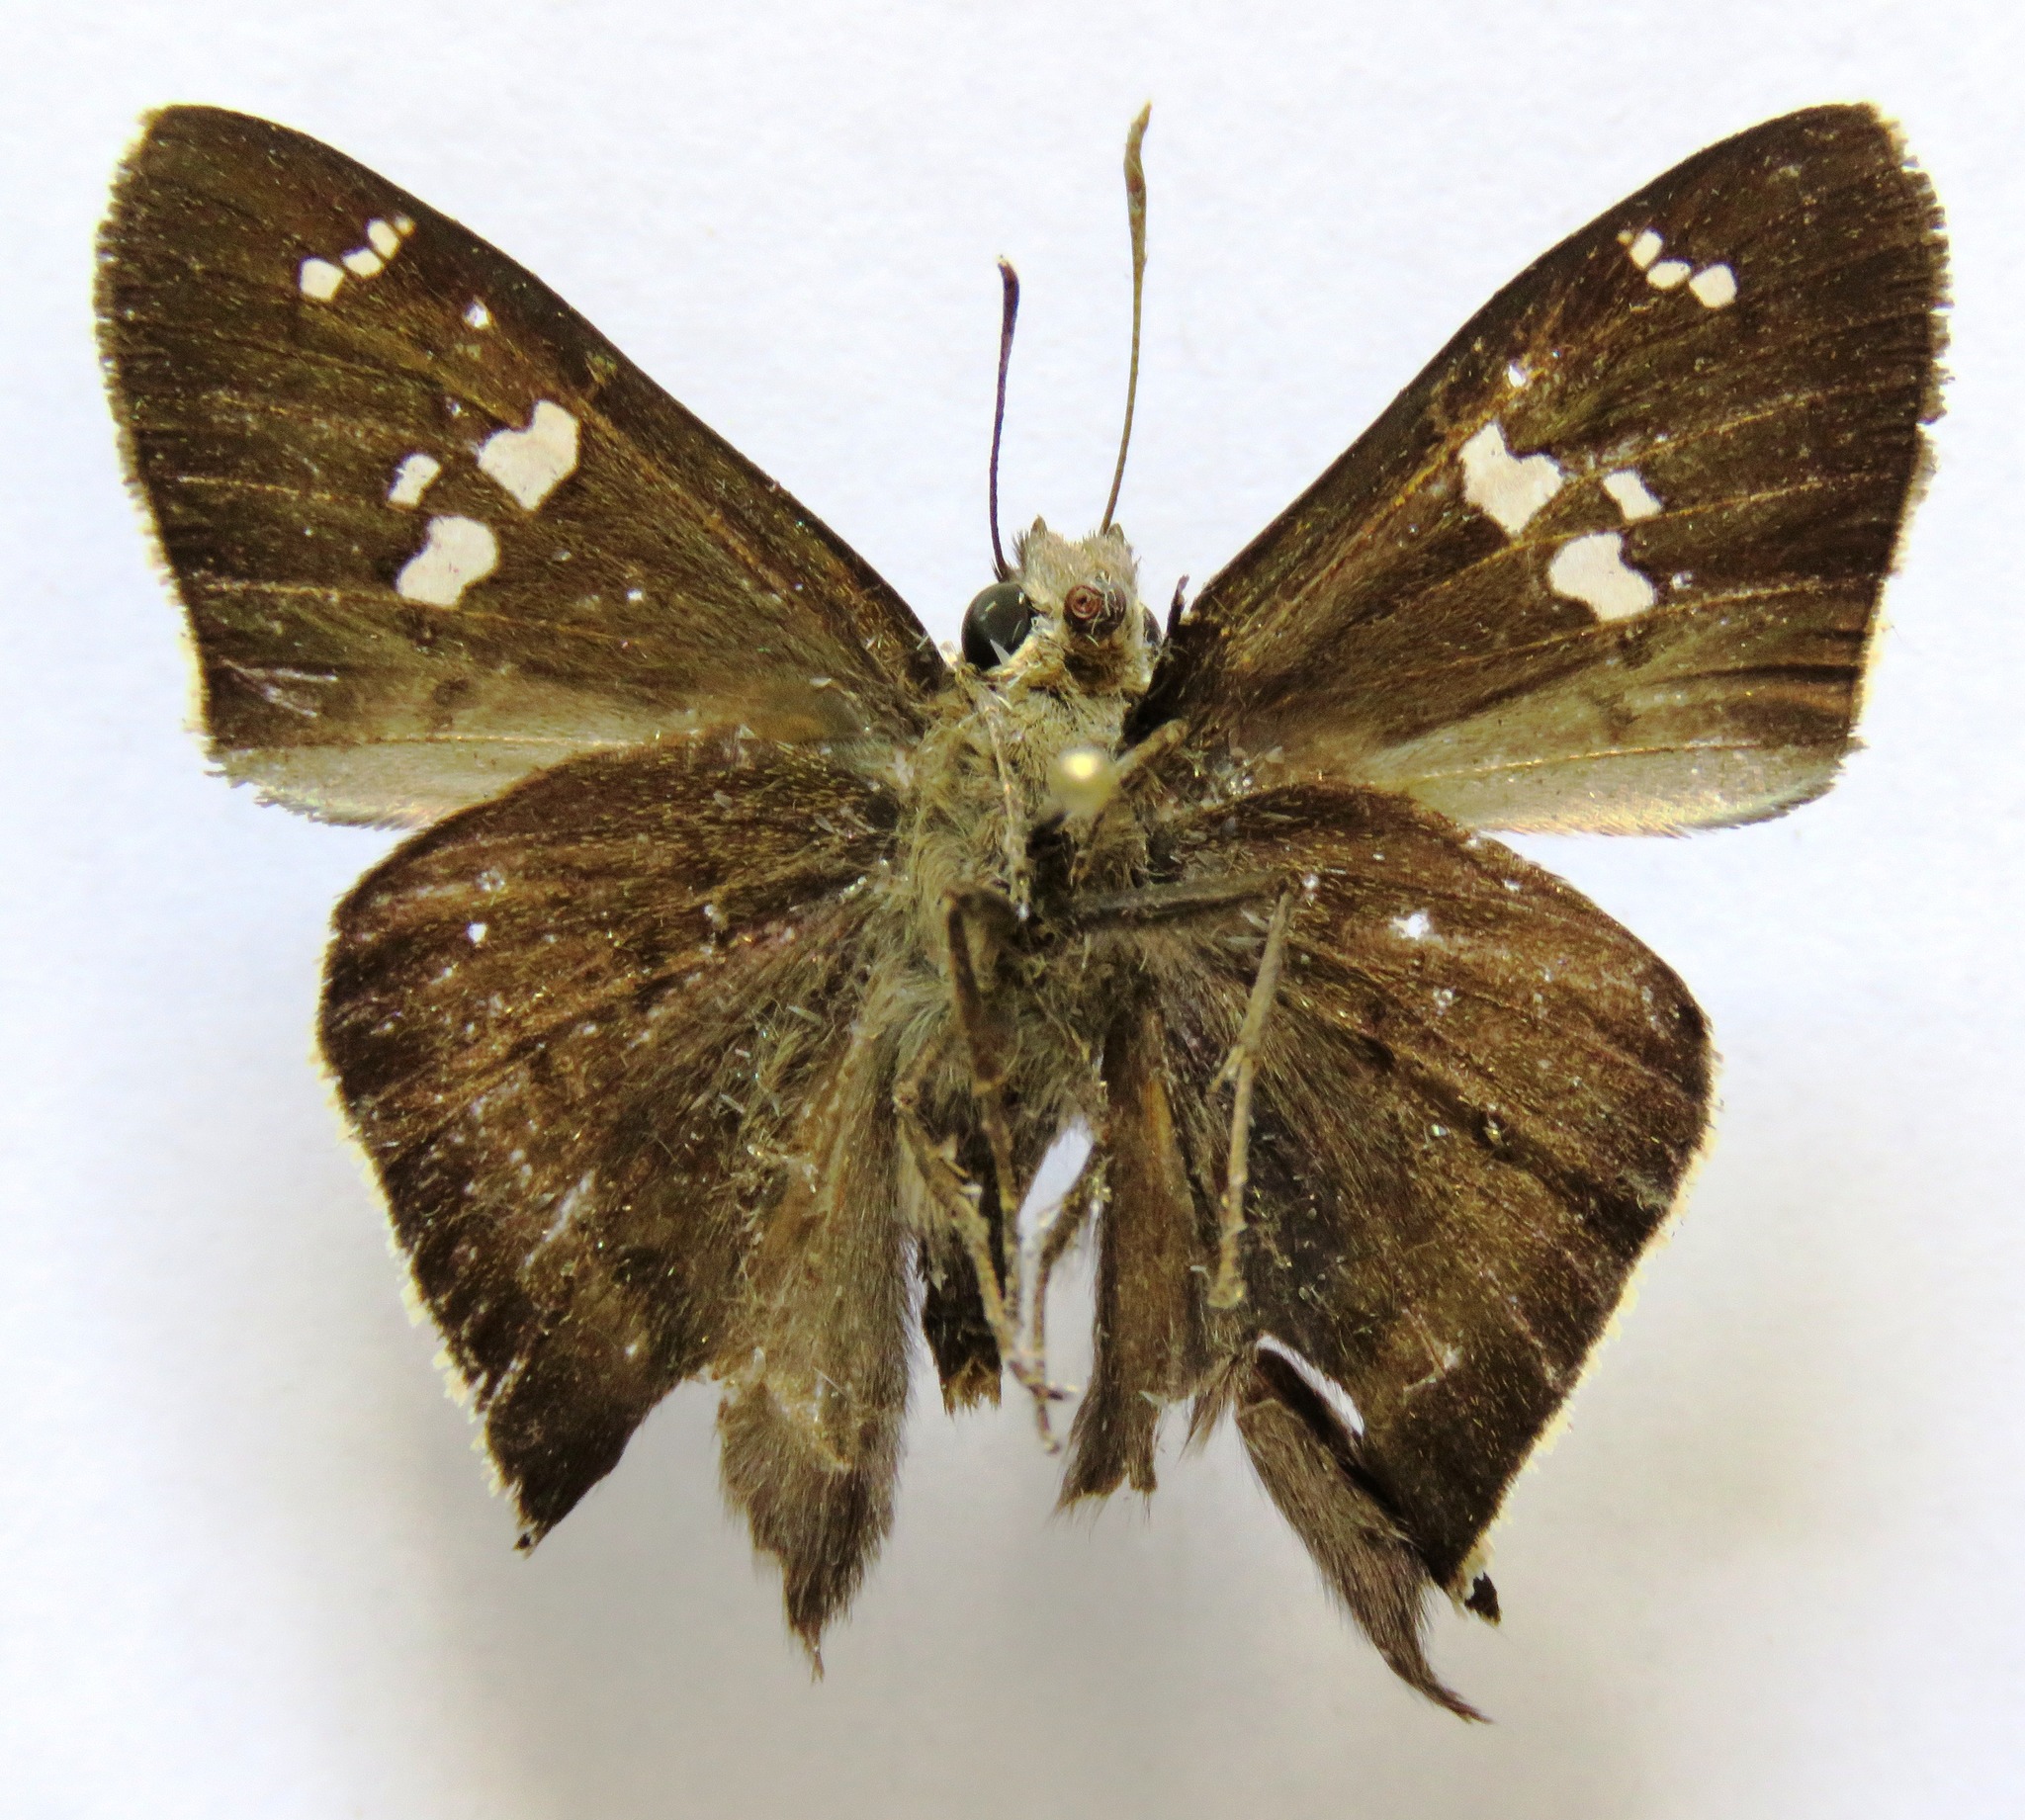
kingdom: Animalia
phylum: Arthropoda
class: Insecta
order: Lepidoptera
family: Hesperiidae
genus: Ectomis
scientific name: Ectomis
